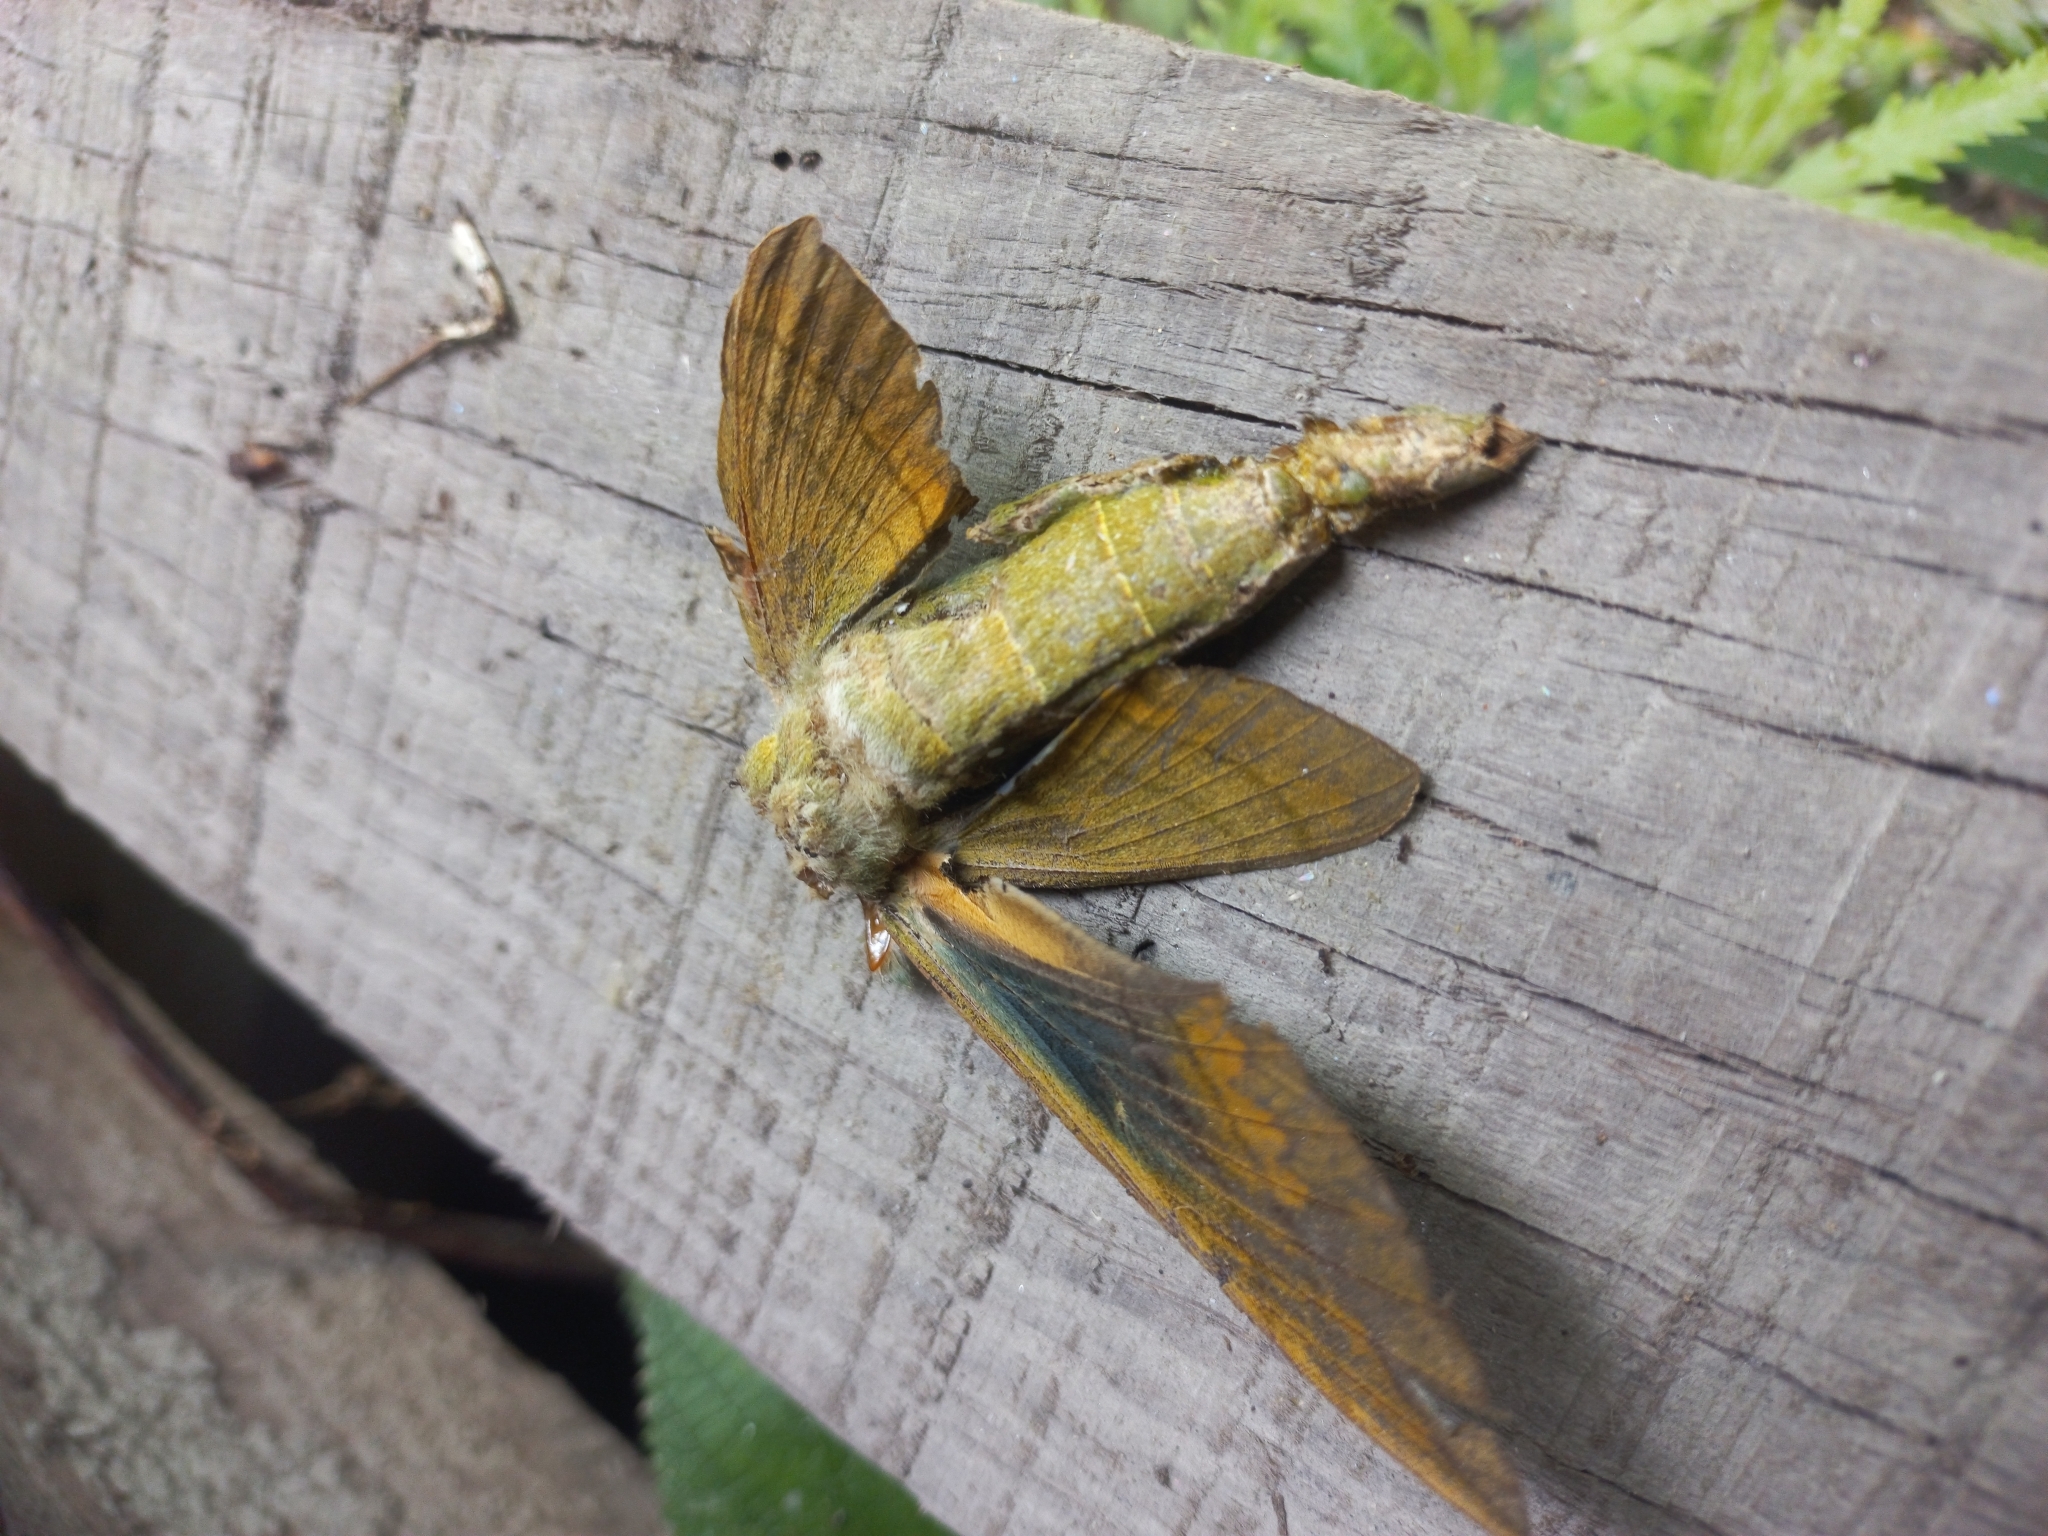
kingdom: Animalia
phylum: Arthropoda
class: Insecta
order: Lepidoptera
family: Sphingidae
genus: Eumorpha
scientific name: Eumorpha labruscae
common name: Gaudy sphinx
